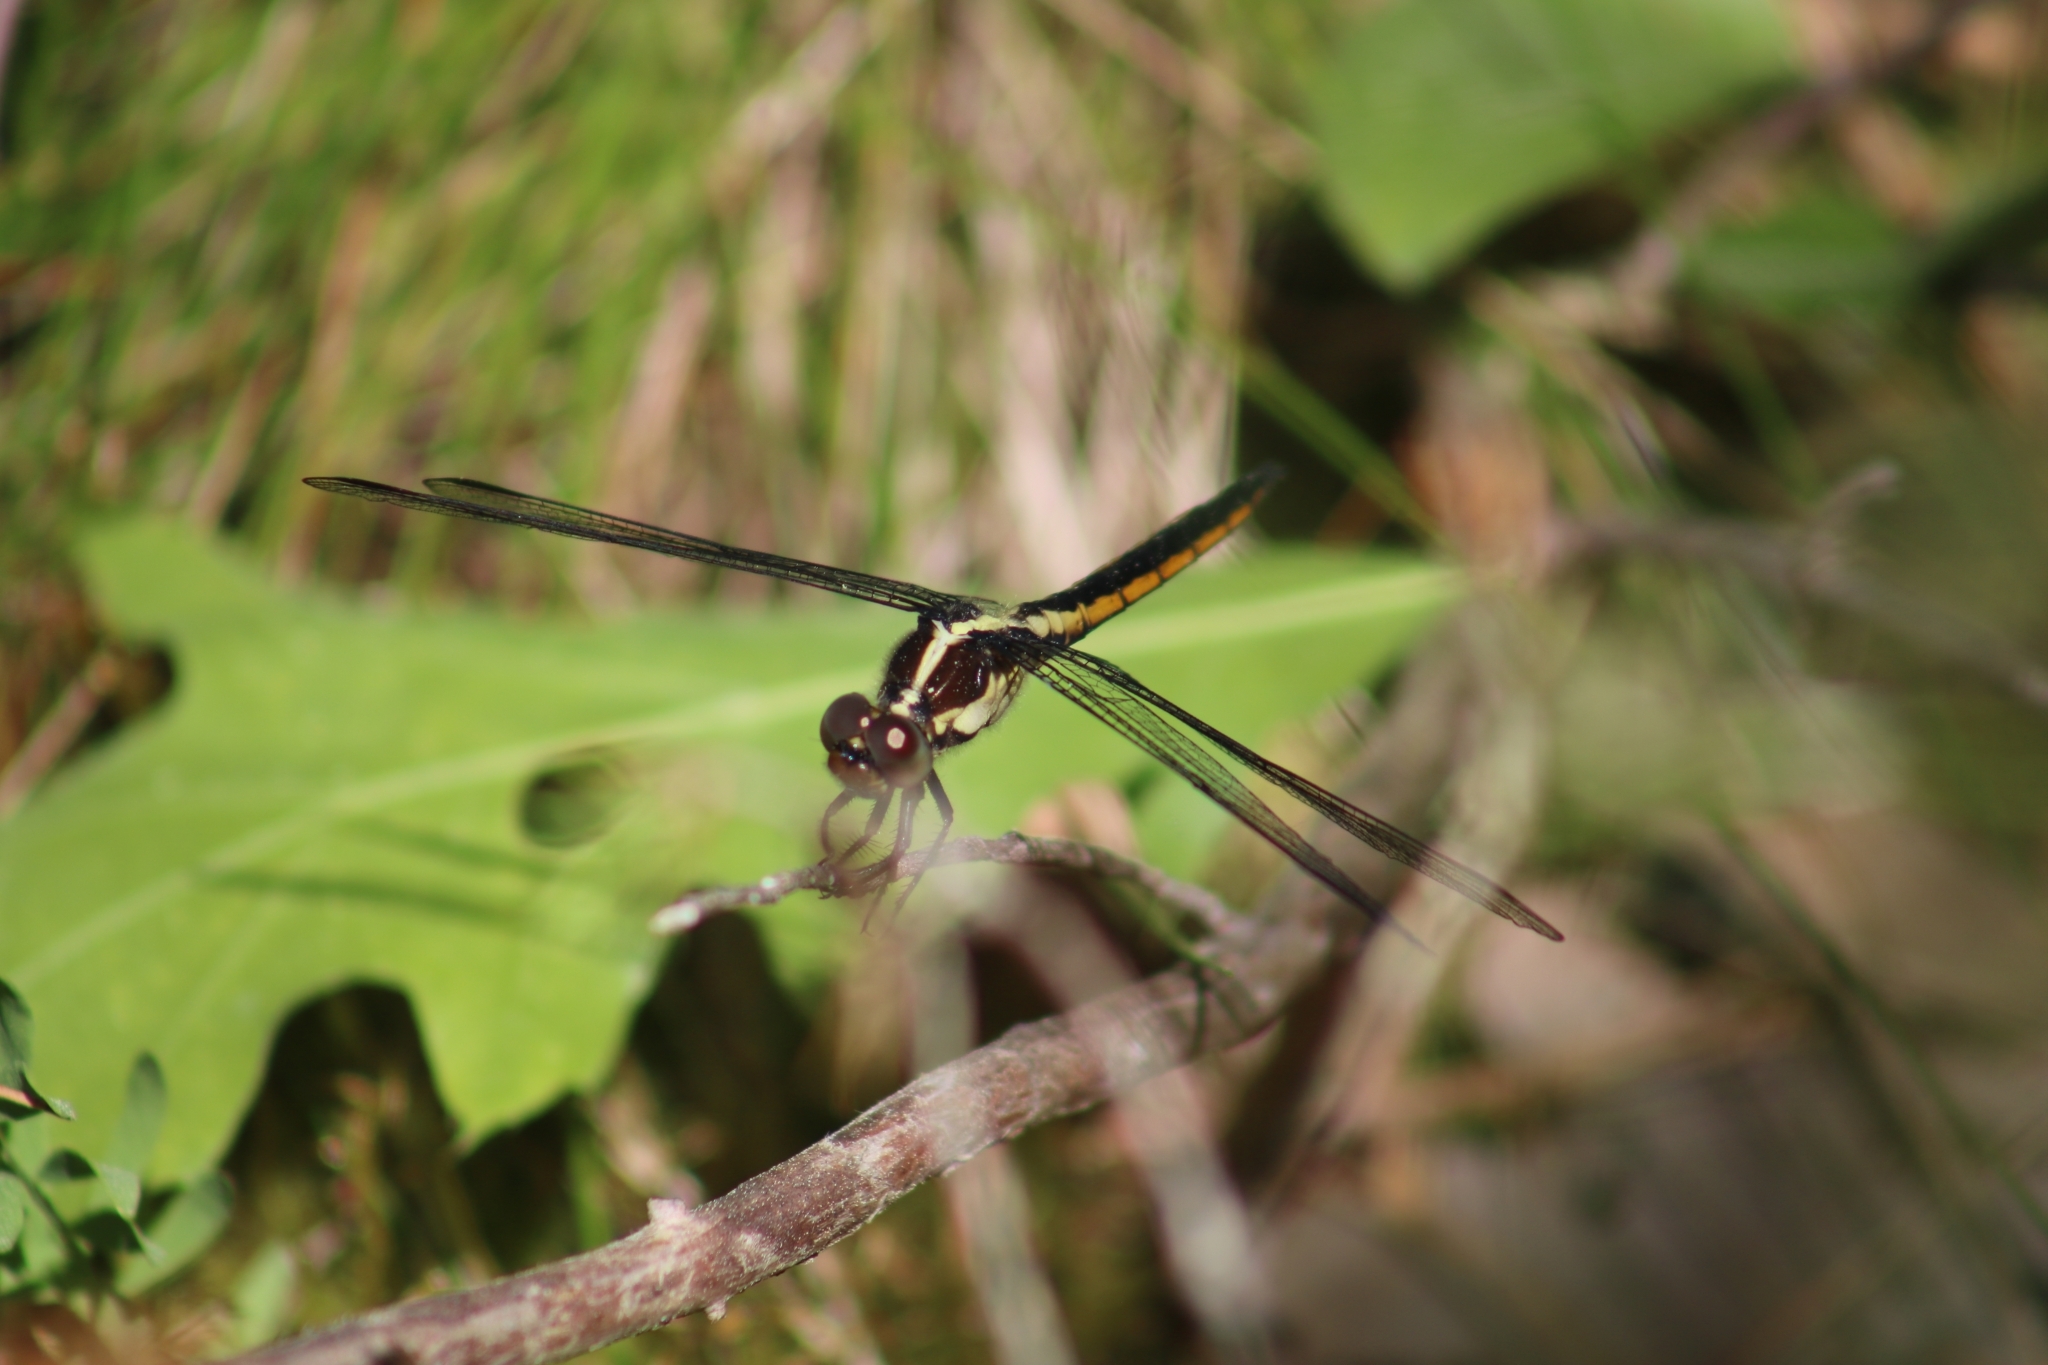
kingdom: Animalia
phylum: Arthropoda
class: Insecta
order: Odonata
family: Libellulidae
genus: Libellula
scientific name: Libellula incesta
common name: Slaty skimmer
